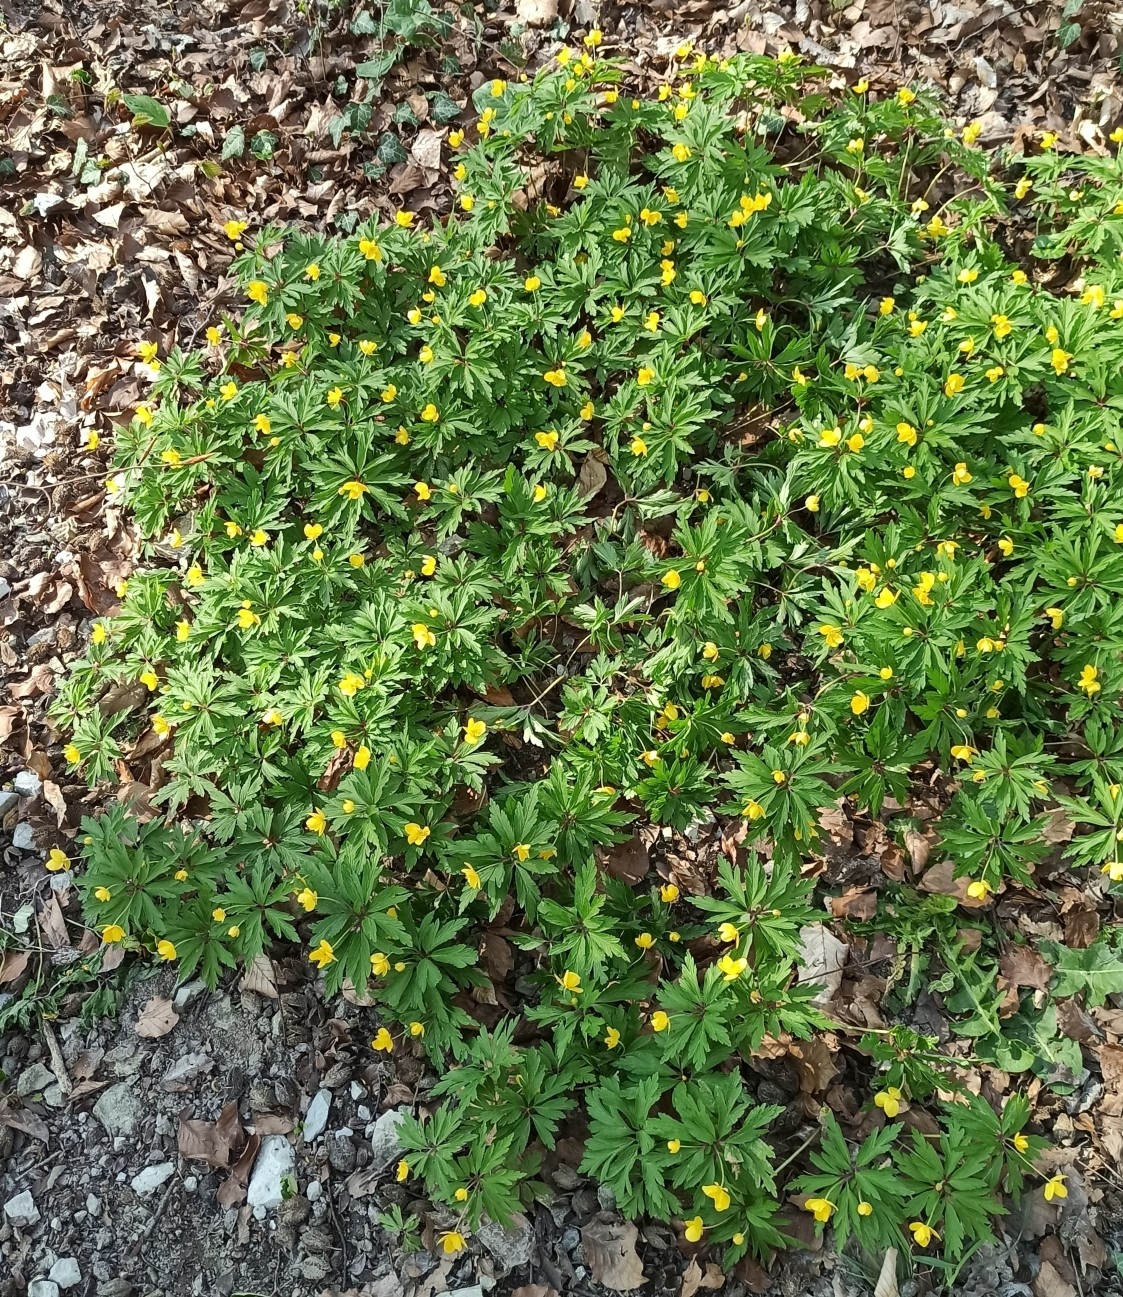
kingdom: Plantae
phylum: Tracheophyta
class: Magnoliopsida
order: Ranunculales
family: Ranunculaceae
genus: Anemone
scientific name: Anemone ranunculoides
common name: Yellow anemone
